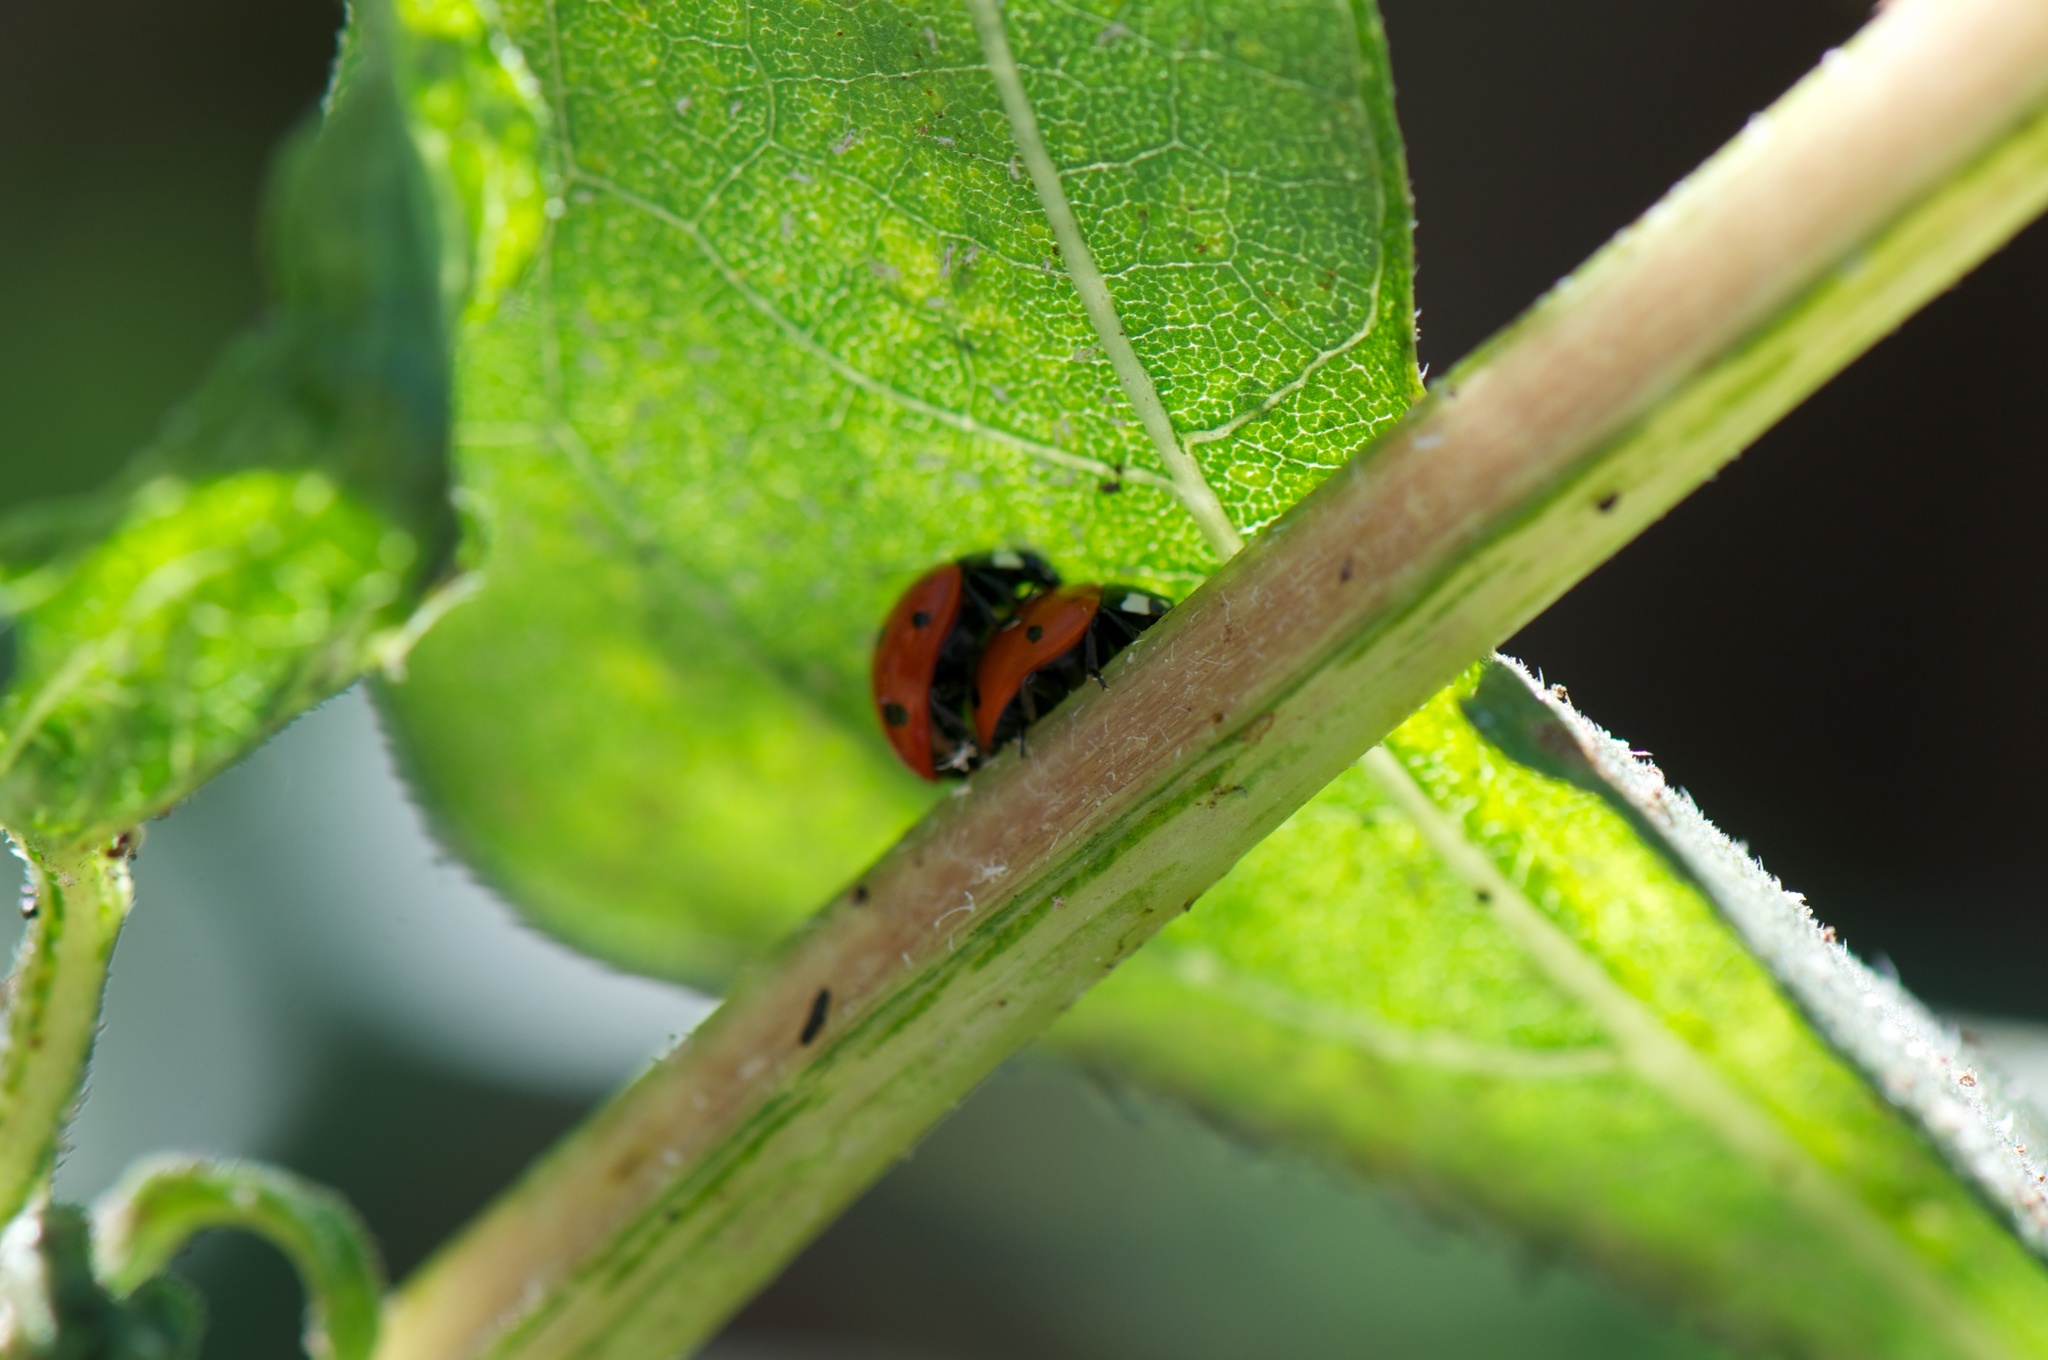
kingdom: Animalia
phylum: Arthropoda
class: Insecta
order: Coleoptera
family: Coccinellidae
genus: Coccinella
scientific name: Coccinella septempunctata
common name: Sevenspotted lady beetle
